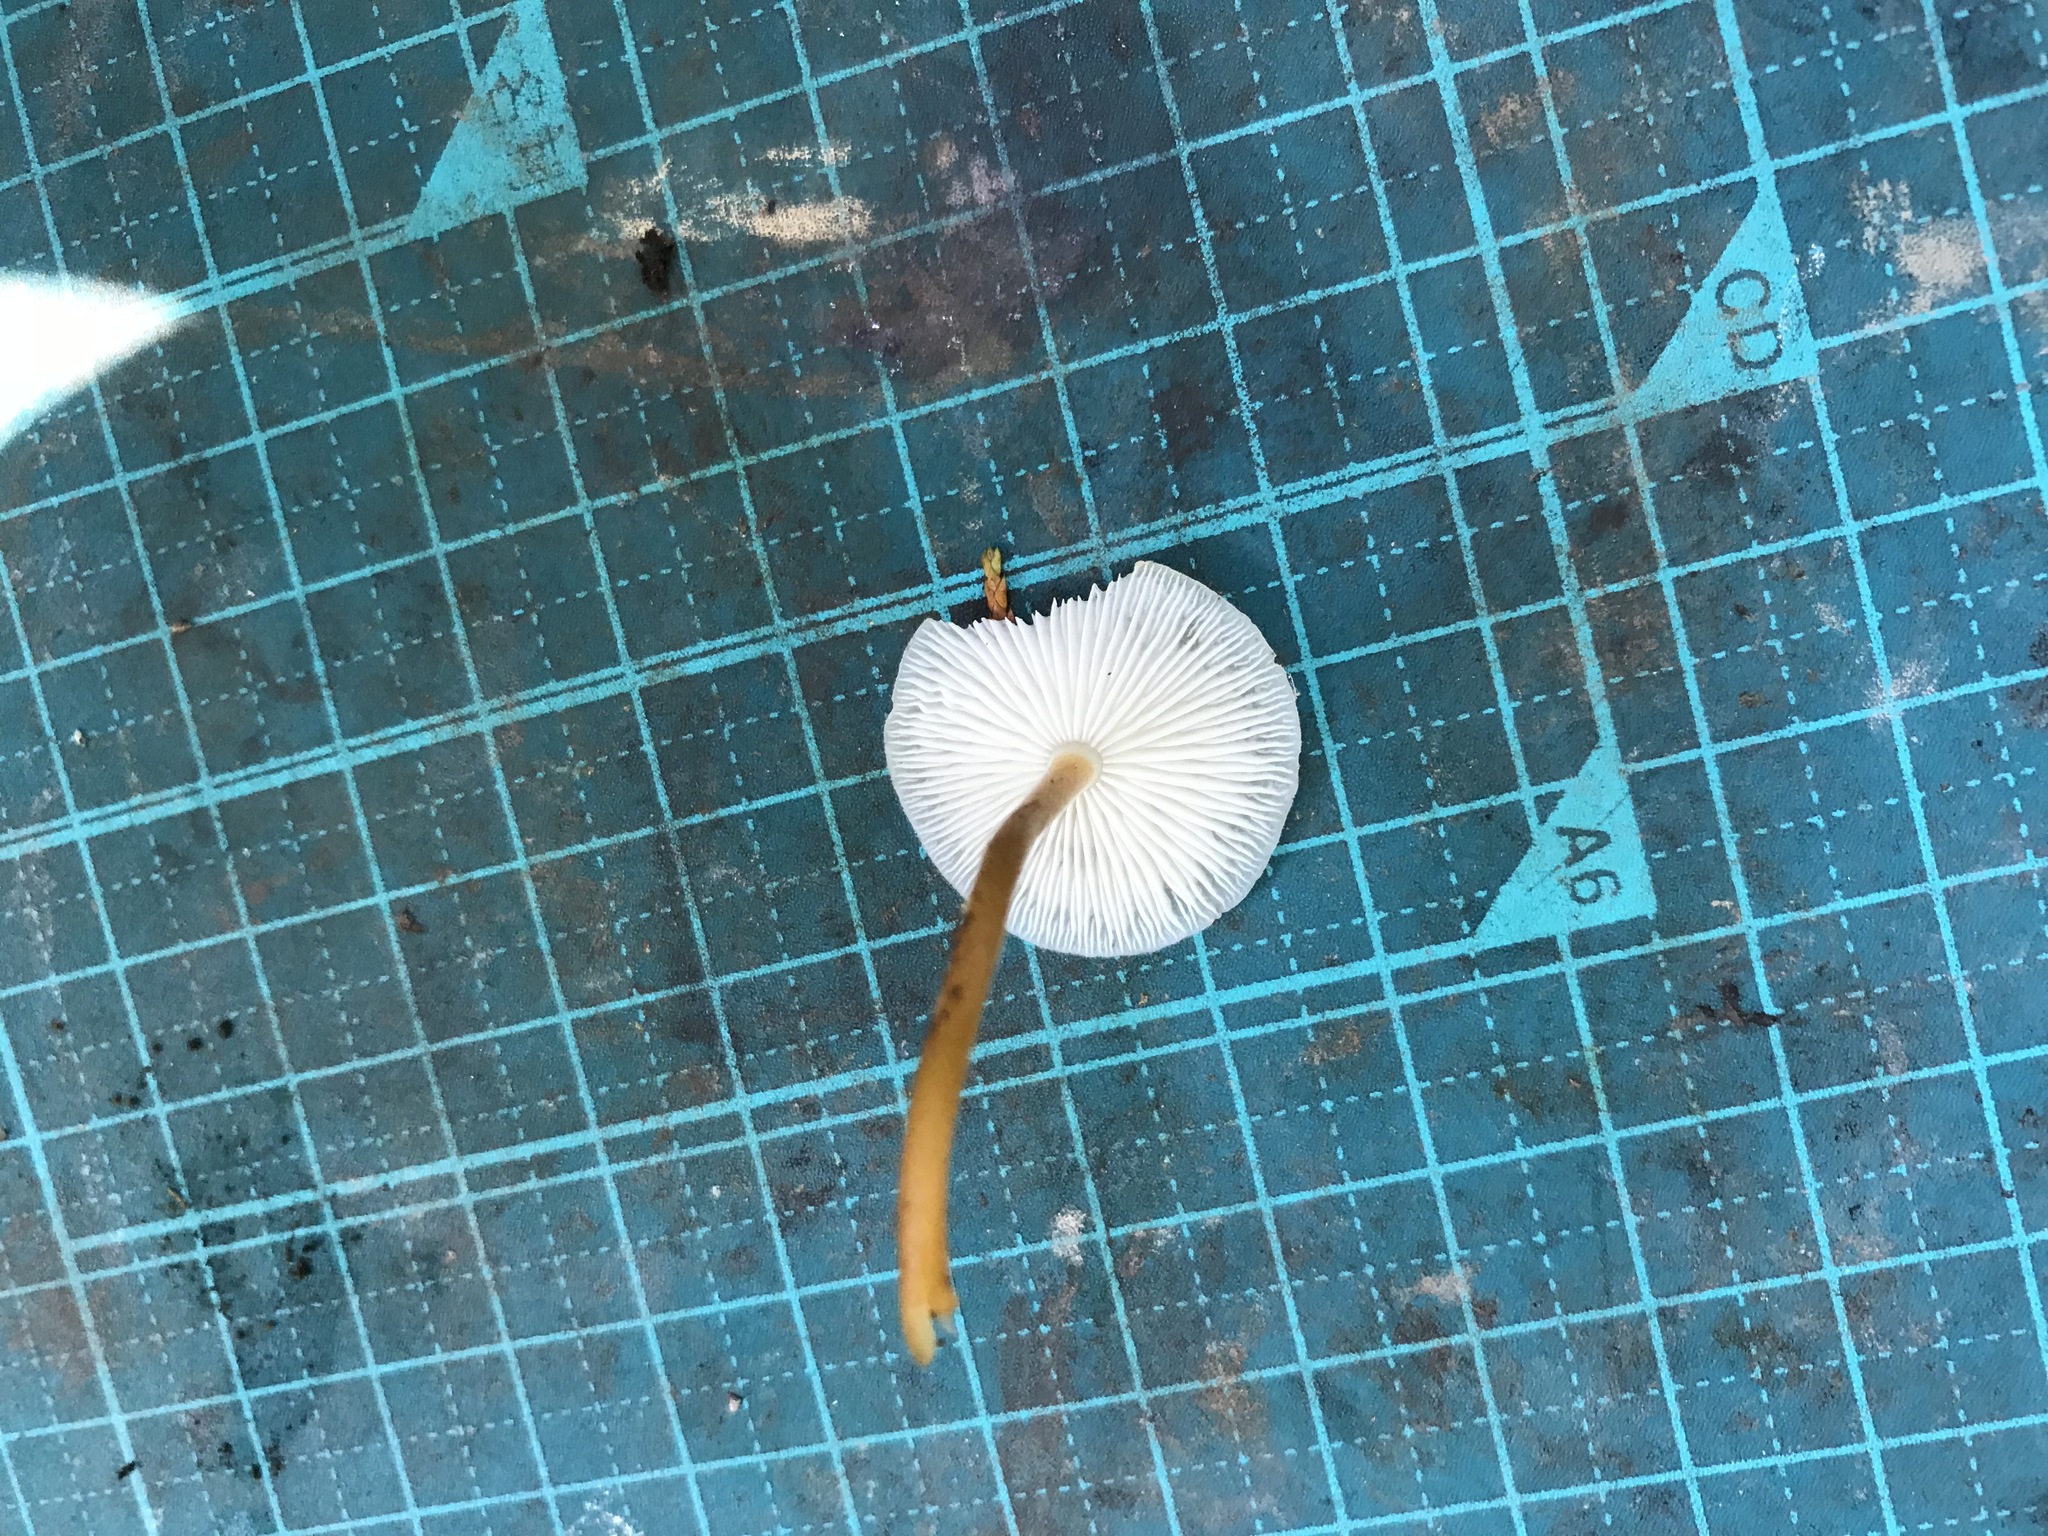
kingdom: Fungi
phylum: Basidiomycota
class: Agaricomycetes
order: Agaricales
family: Physalacriaceae
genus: Strobilurus
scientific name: Strobilurus ohshimae
